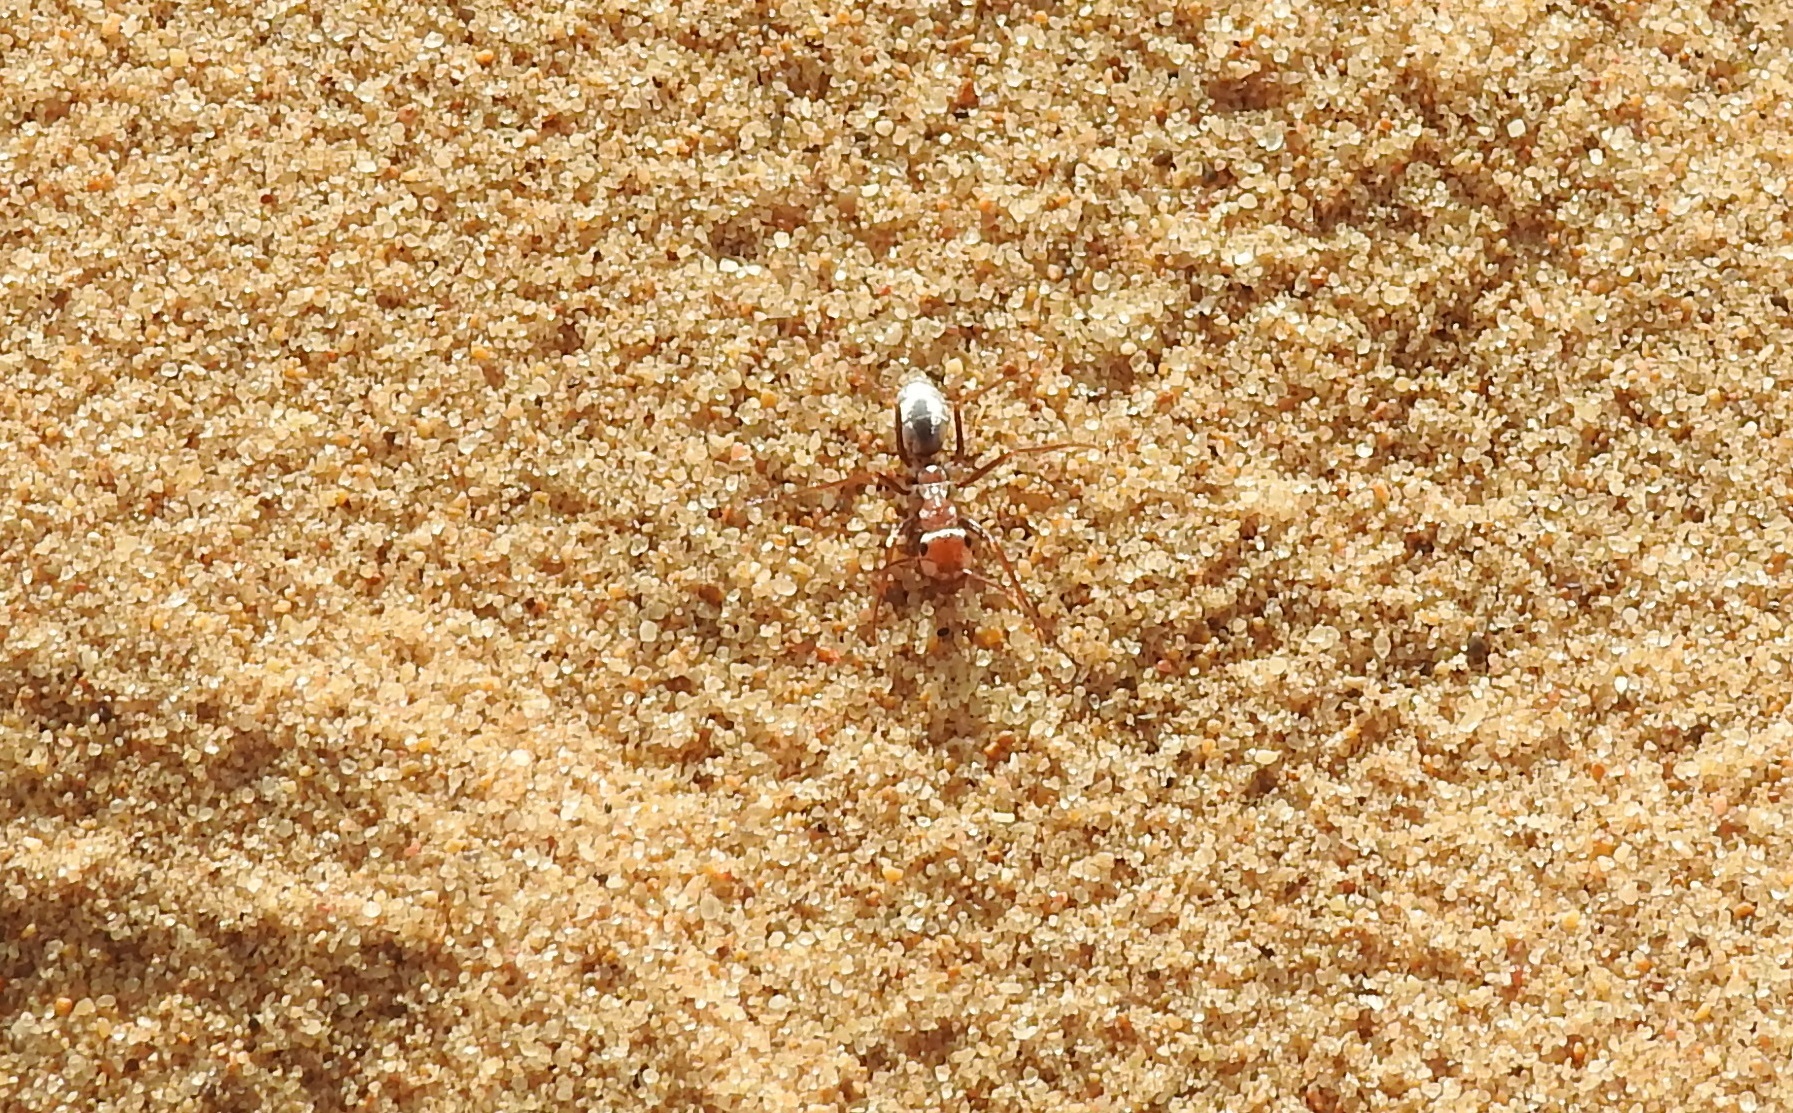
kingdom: Animalia
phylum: Arthropoda
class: Insecta
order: Hymenoptera
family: Formicidae
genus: Cataglyphis
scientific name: Cataglyphis bombycinus
